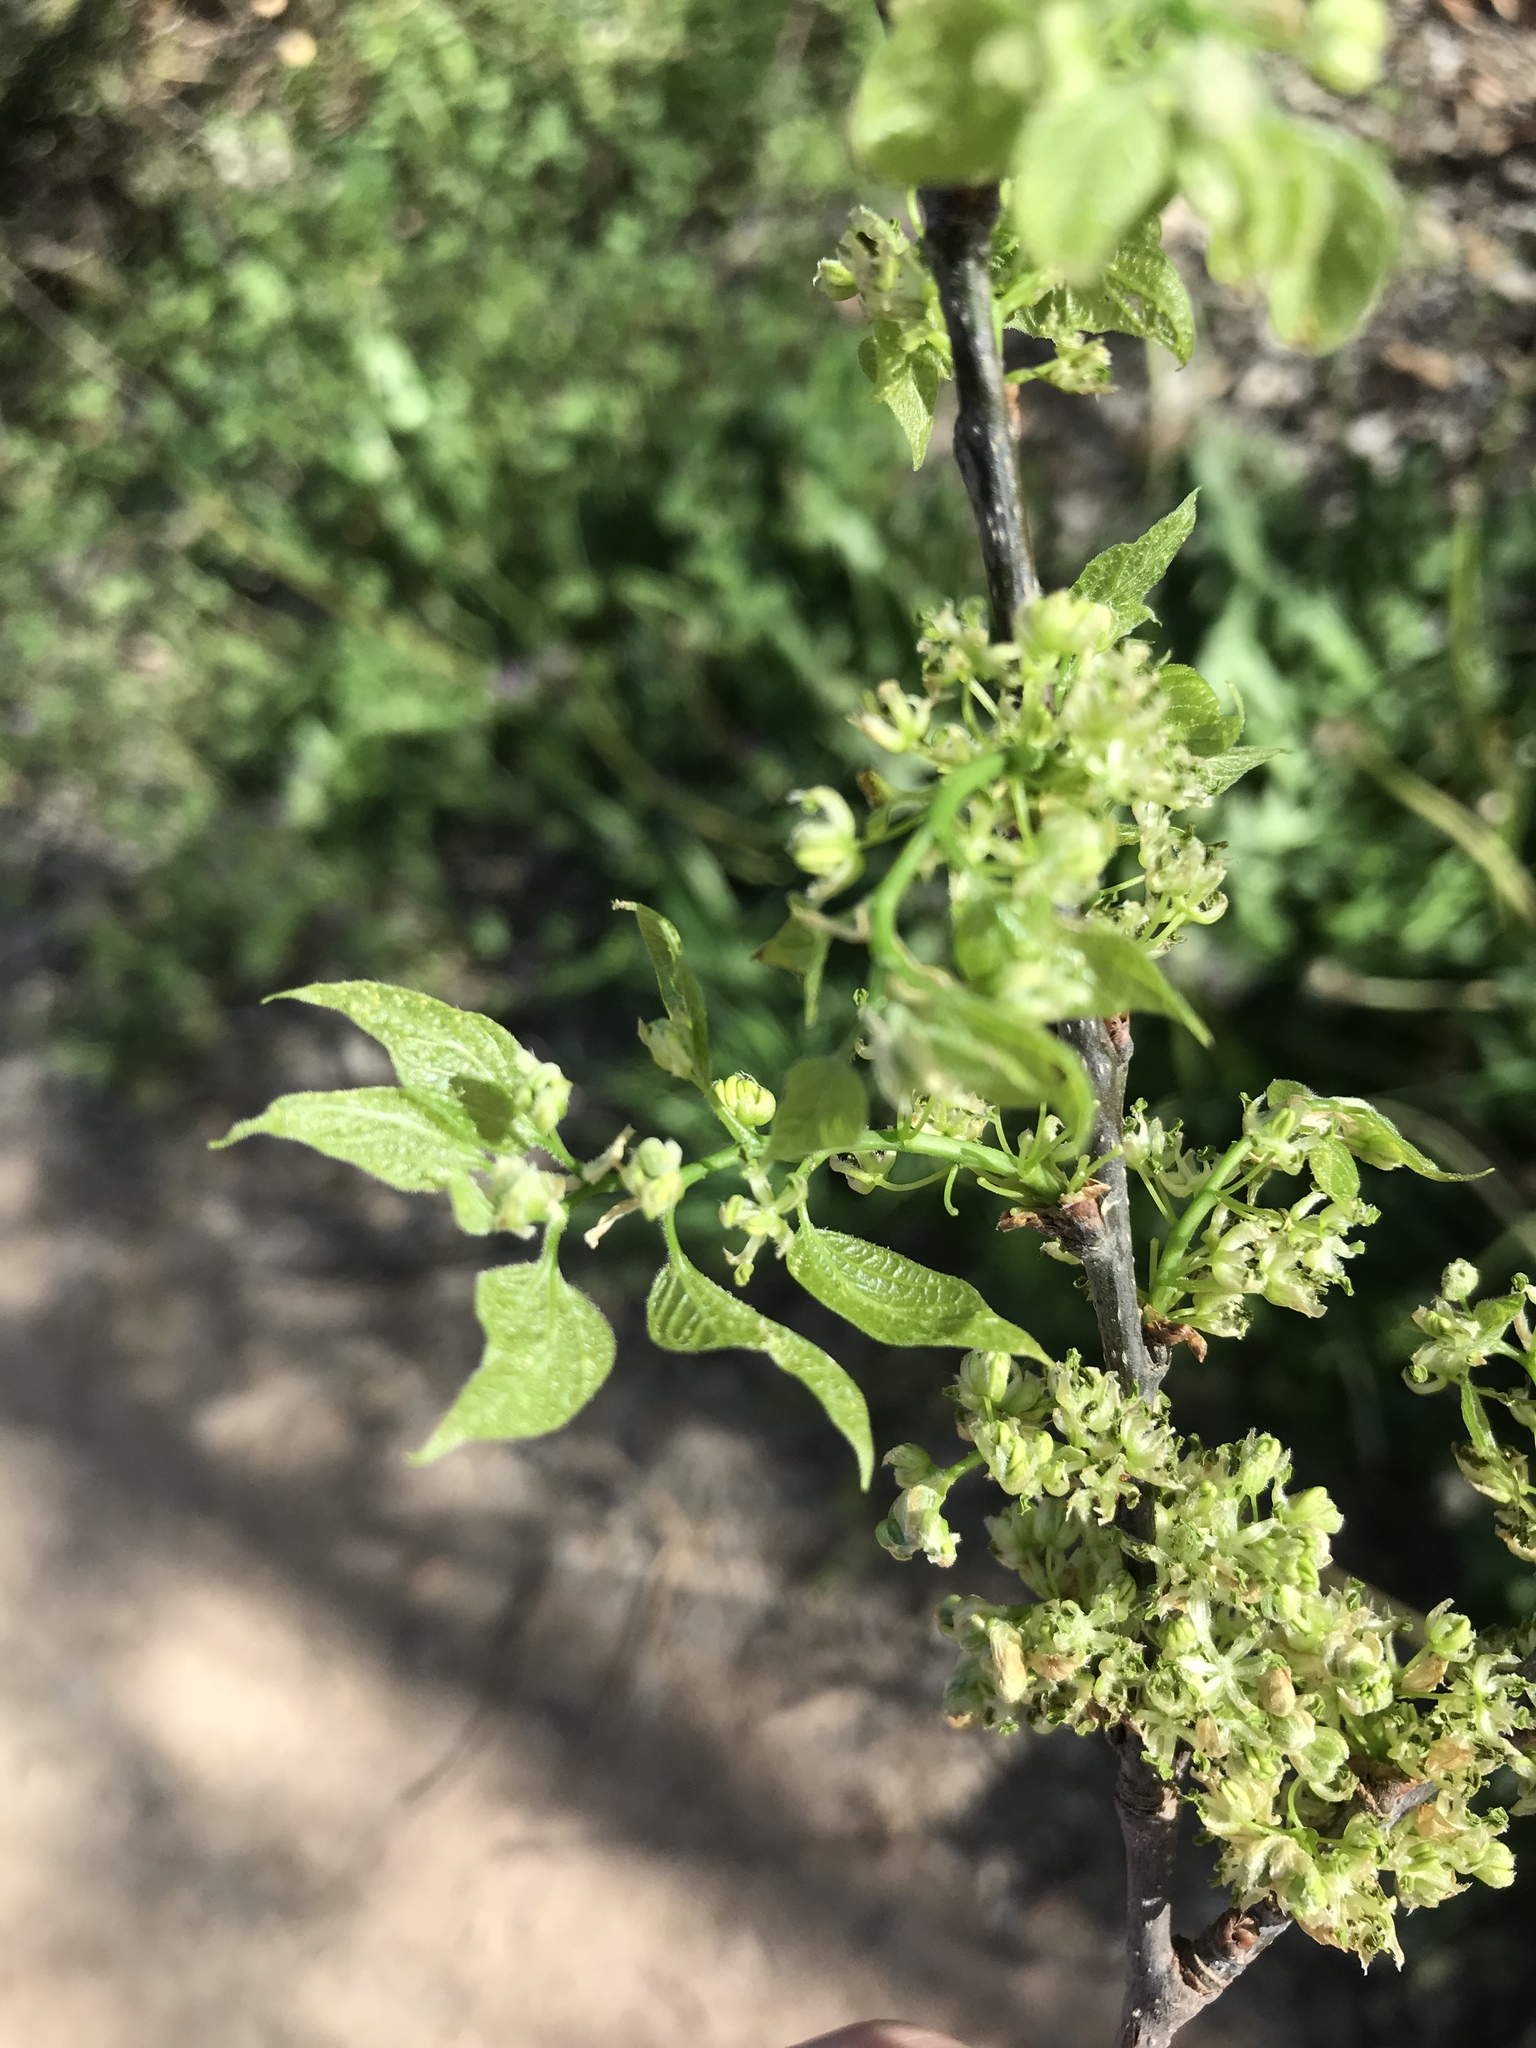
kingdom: Plantae
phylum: Tracheophyta
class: Magnoliopsida
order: Rosales
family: Cannabaceae
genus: Celtis
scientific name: Celtis laevigata
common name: Sugarberry
